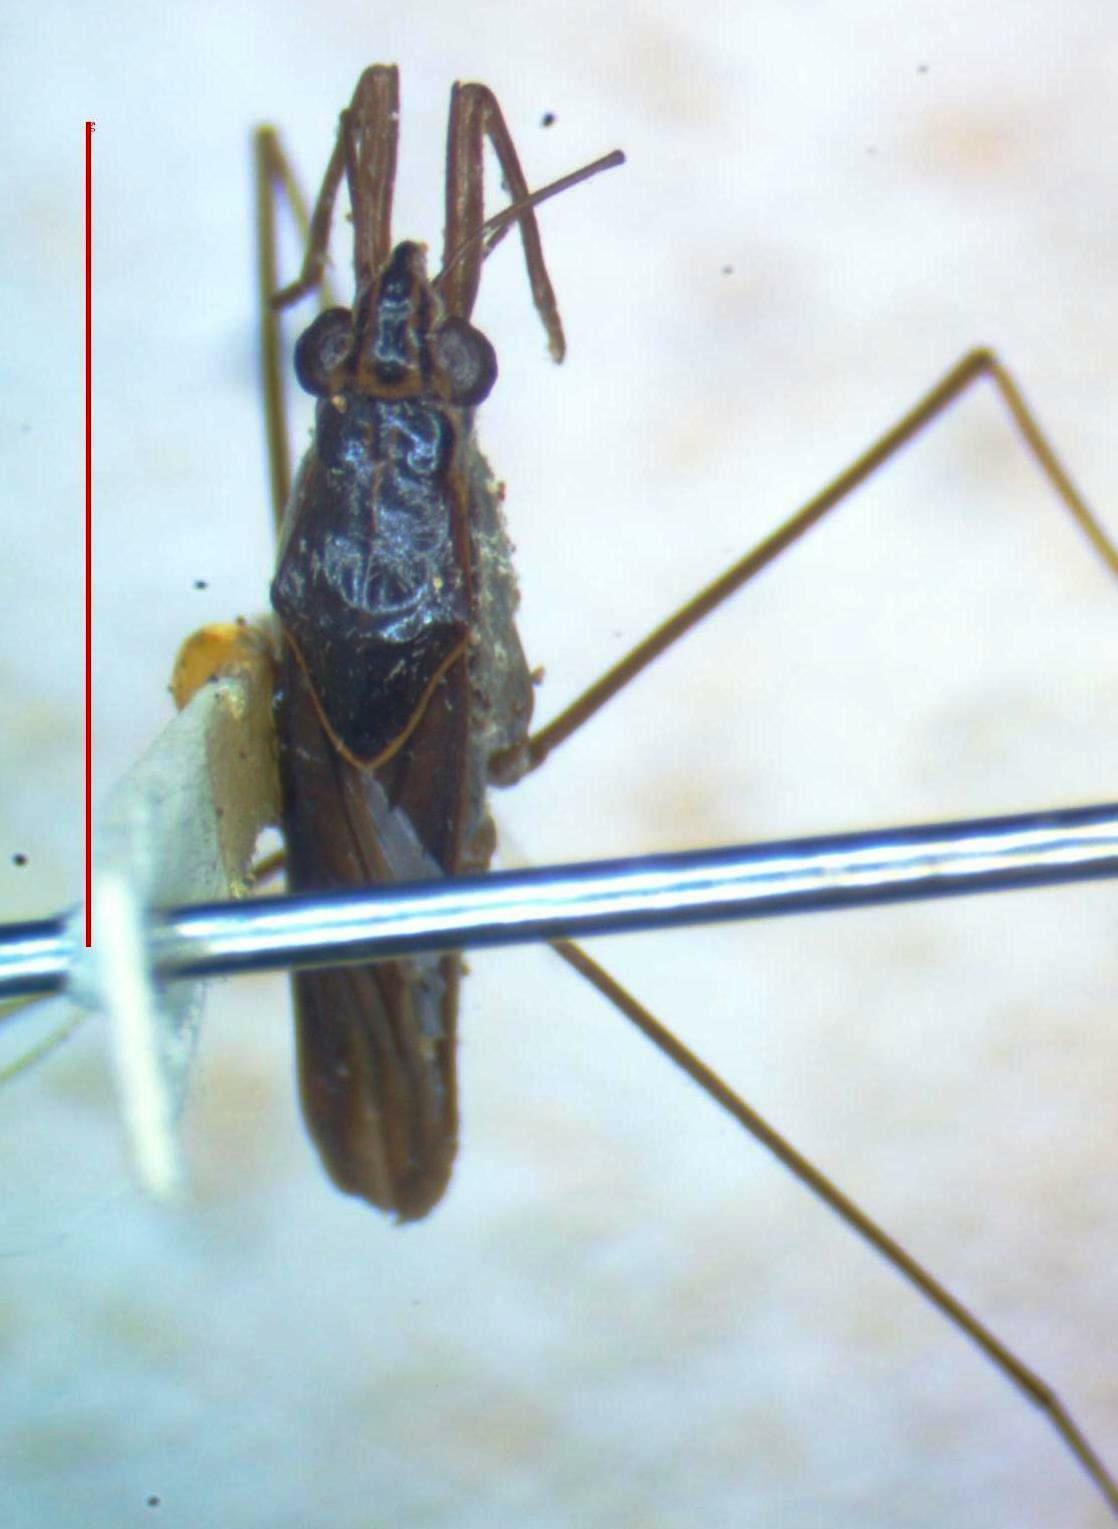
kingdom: Animalia
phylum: Arthropoda
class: Insecta
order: Hemiptera
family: Gerridae
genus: Limnogonus
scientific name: Limnogonus
